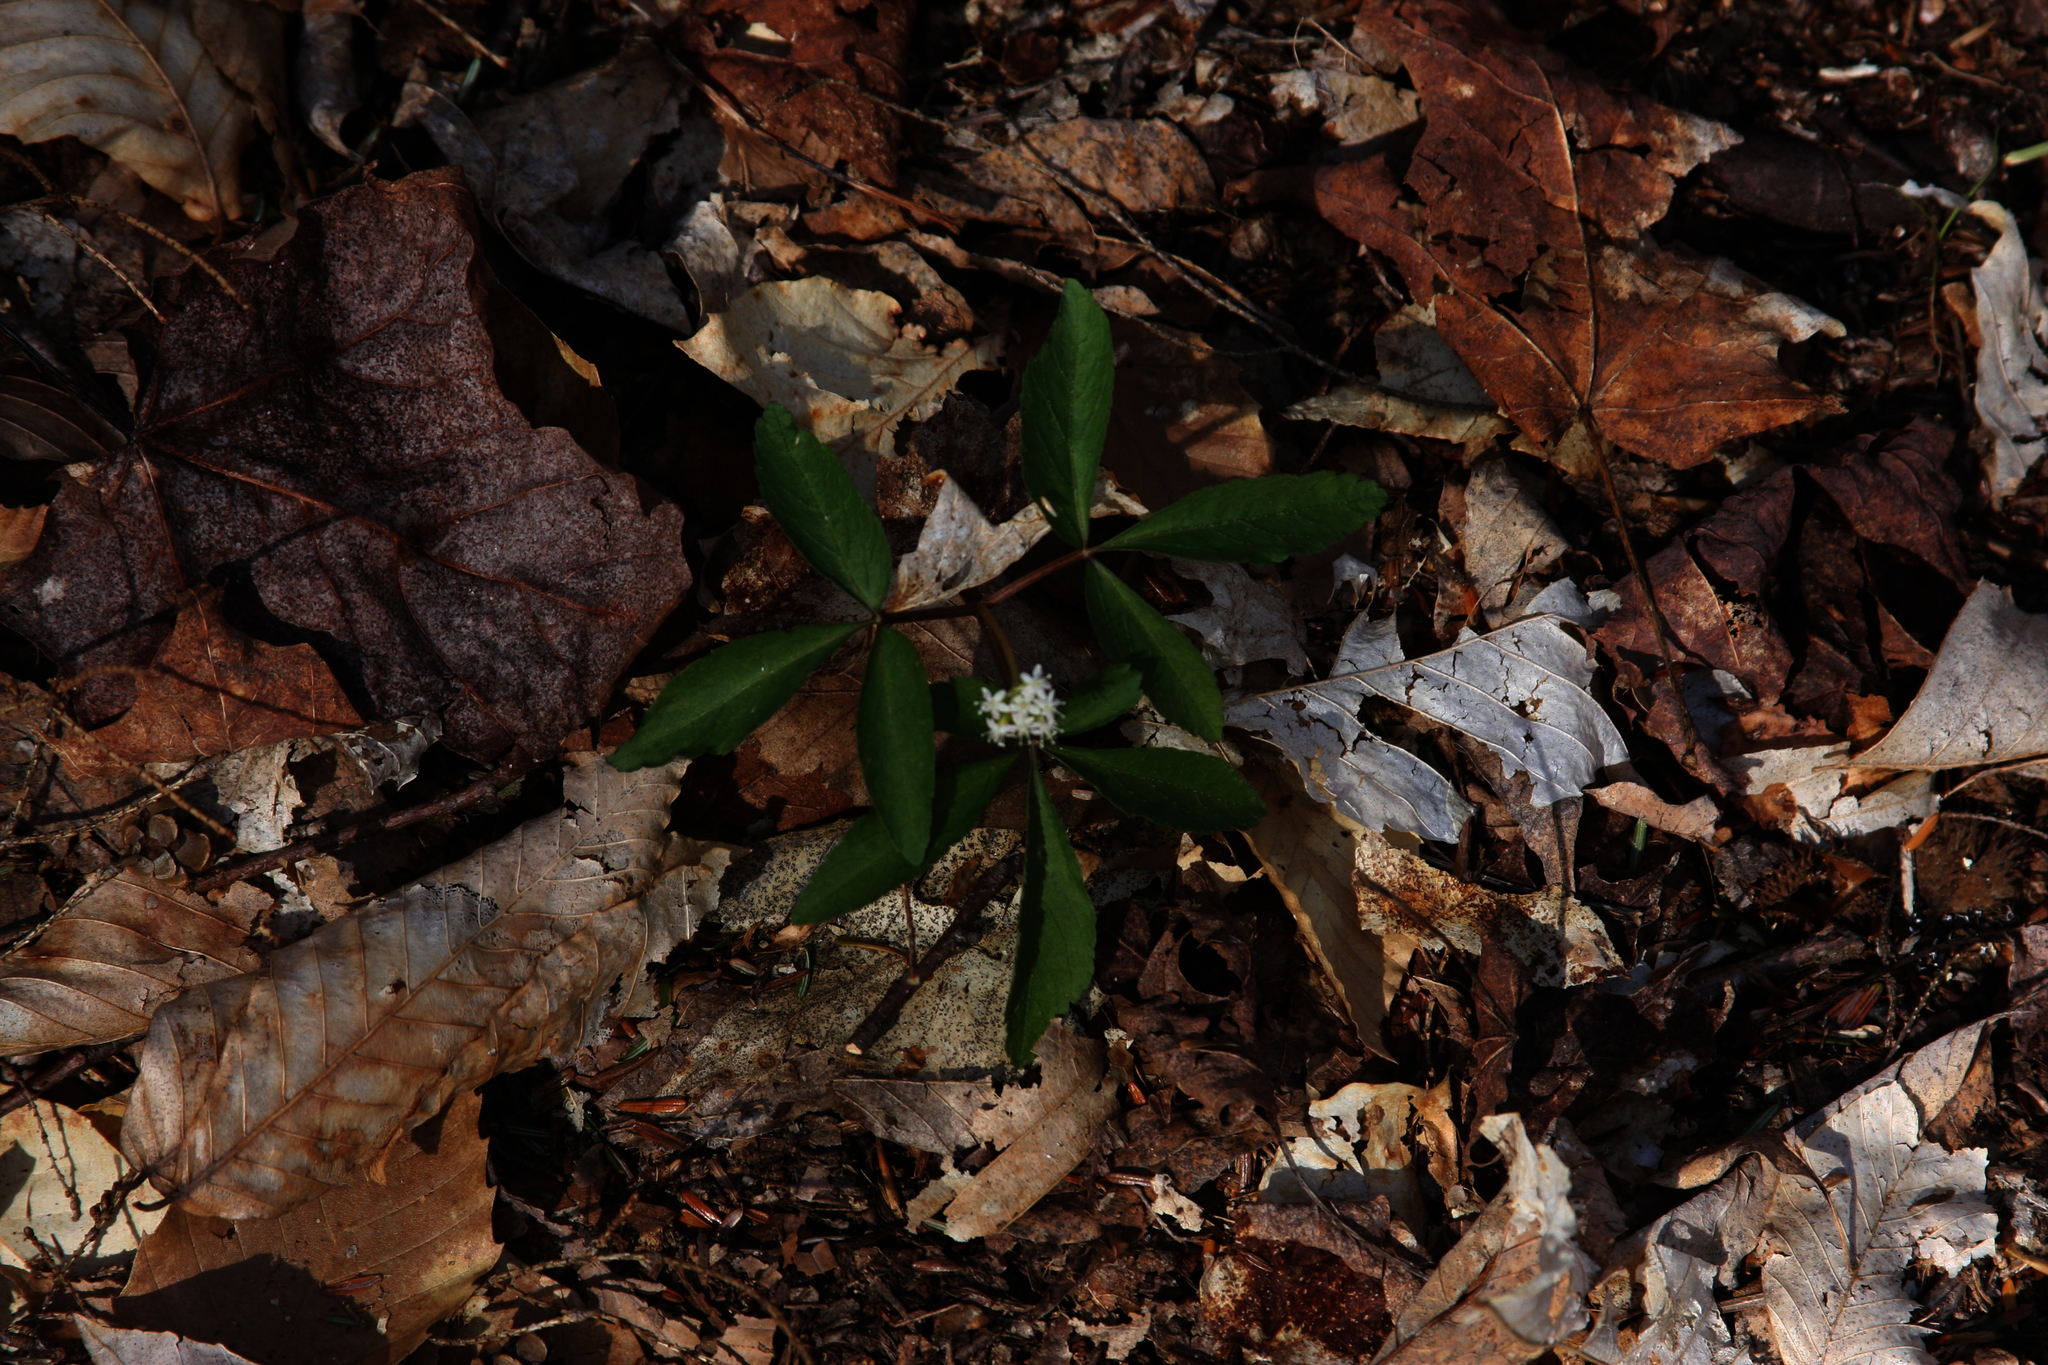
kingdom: Plantae
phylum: Tracheophyta
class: Magnoliopsida
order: Apiales
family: Araliaceae
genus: Panax
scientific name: Panax trifolius
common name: Dwarf ginseng
